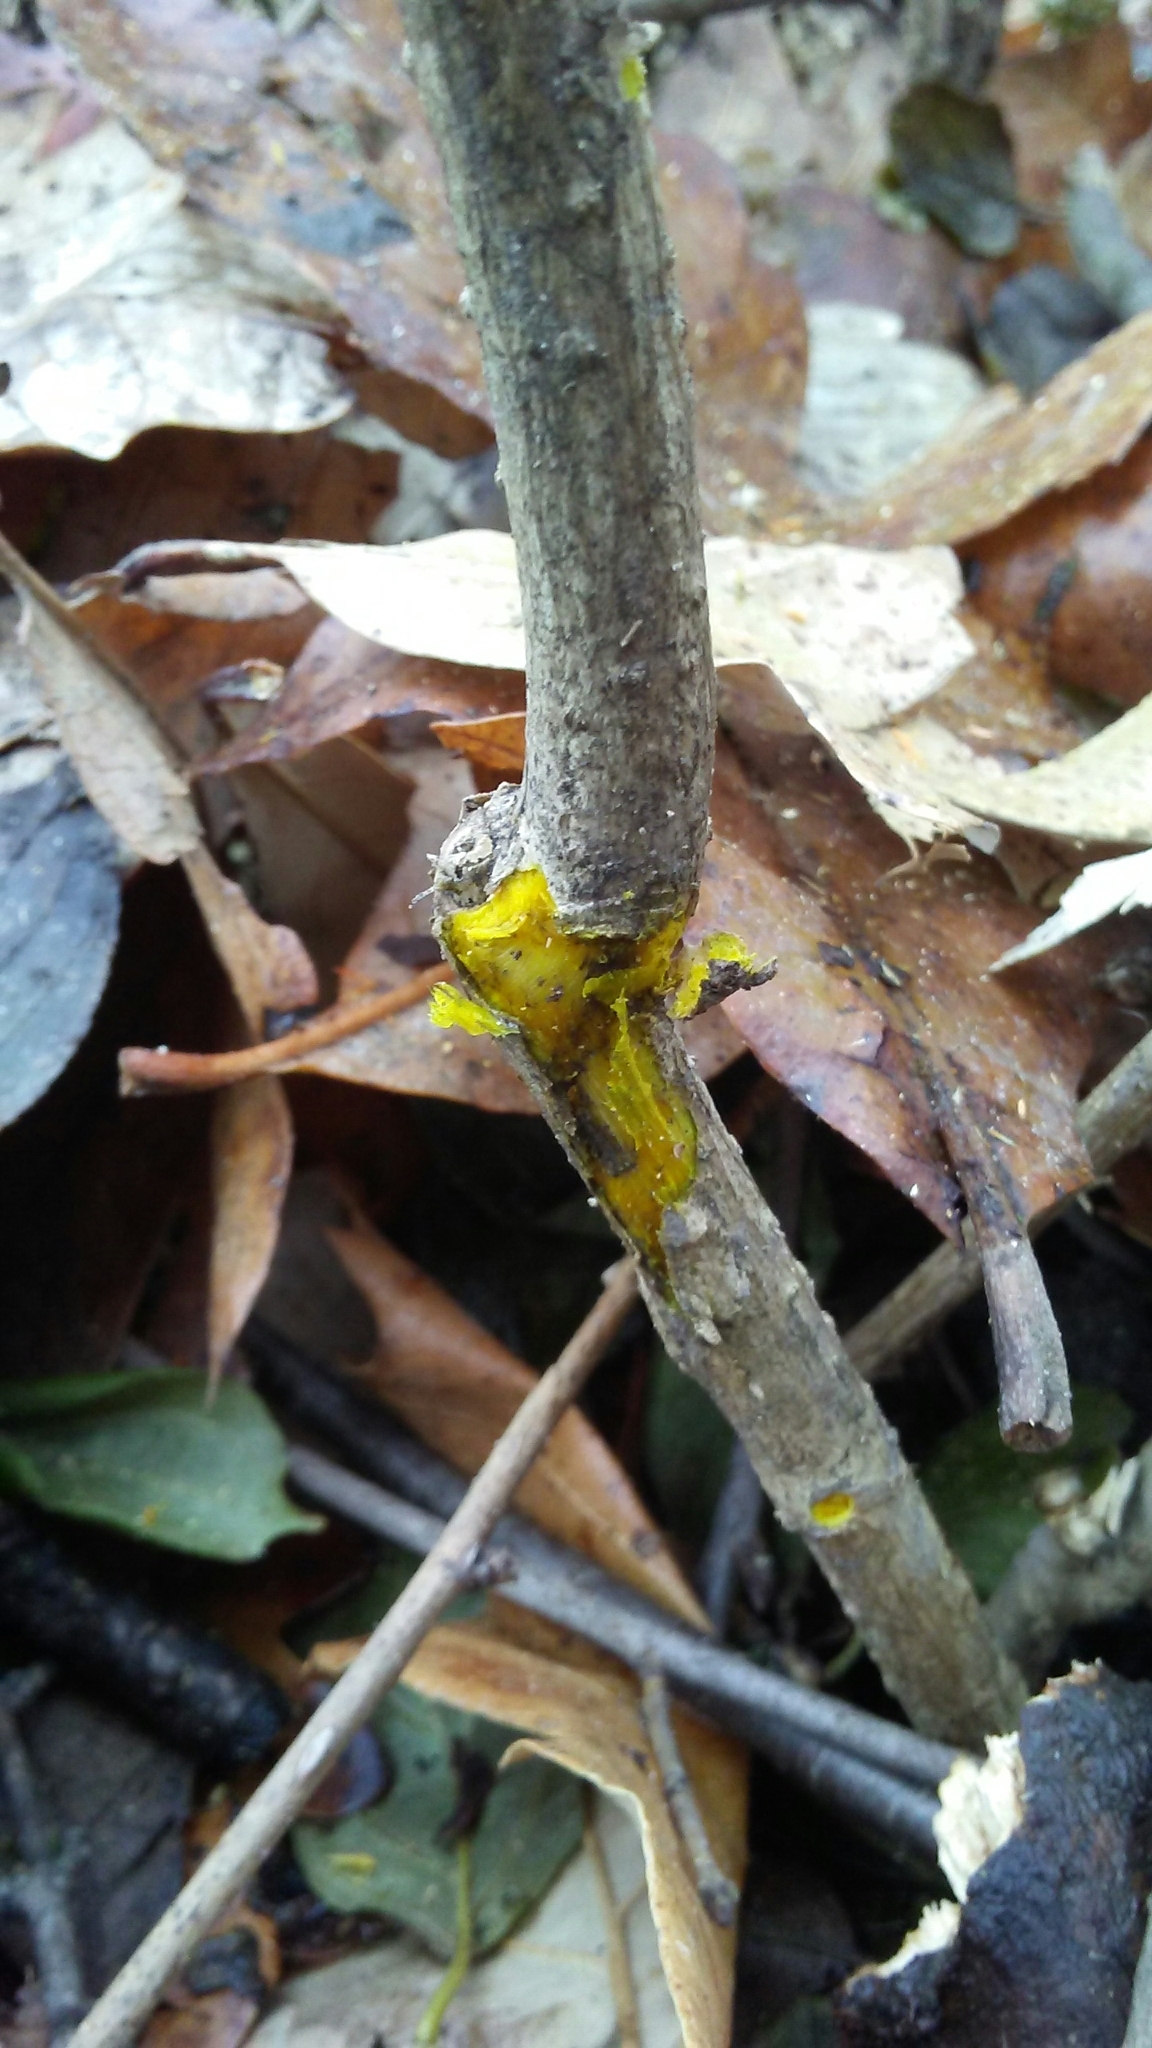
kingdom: Plantae
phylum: Tracheophyta
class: Magnoliopsida
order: Ranunculales
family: Berberidaceae
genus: Berberis
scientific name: Berberis thunbergii
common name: Japanese barberry
